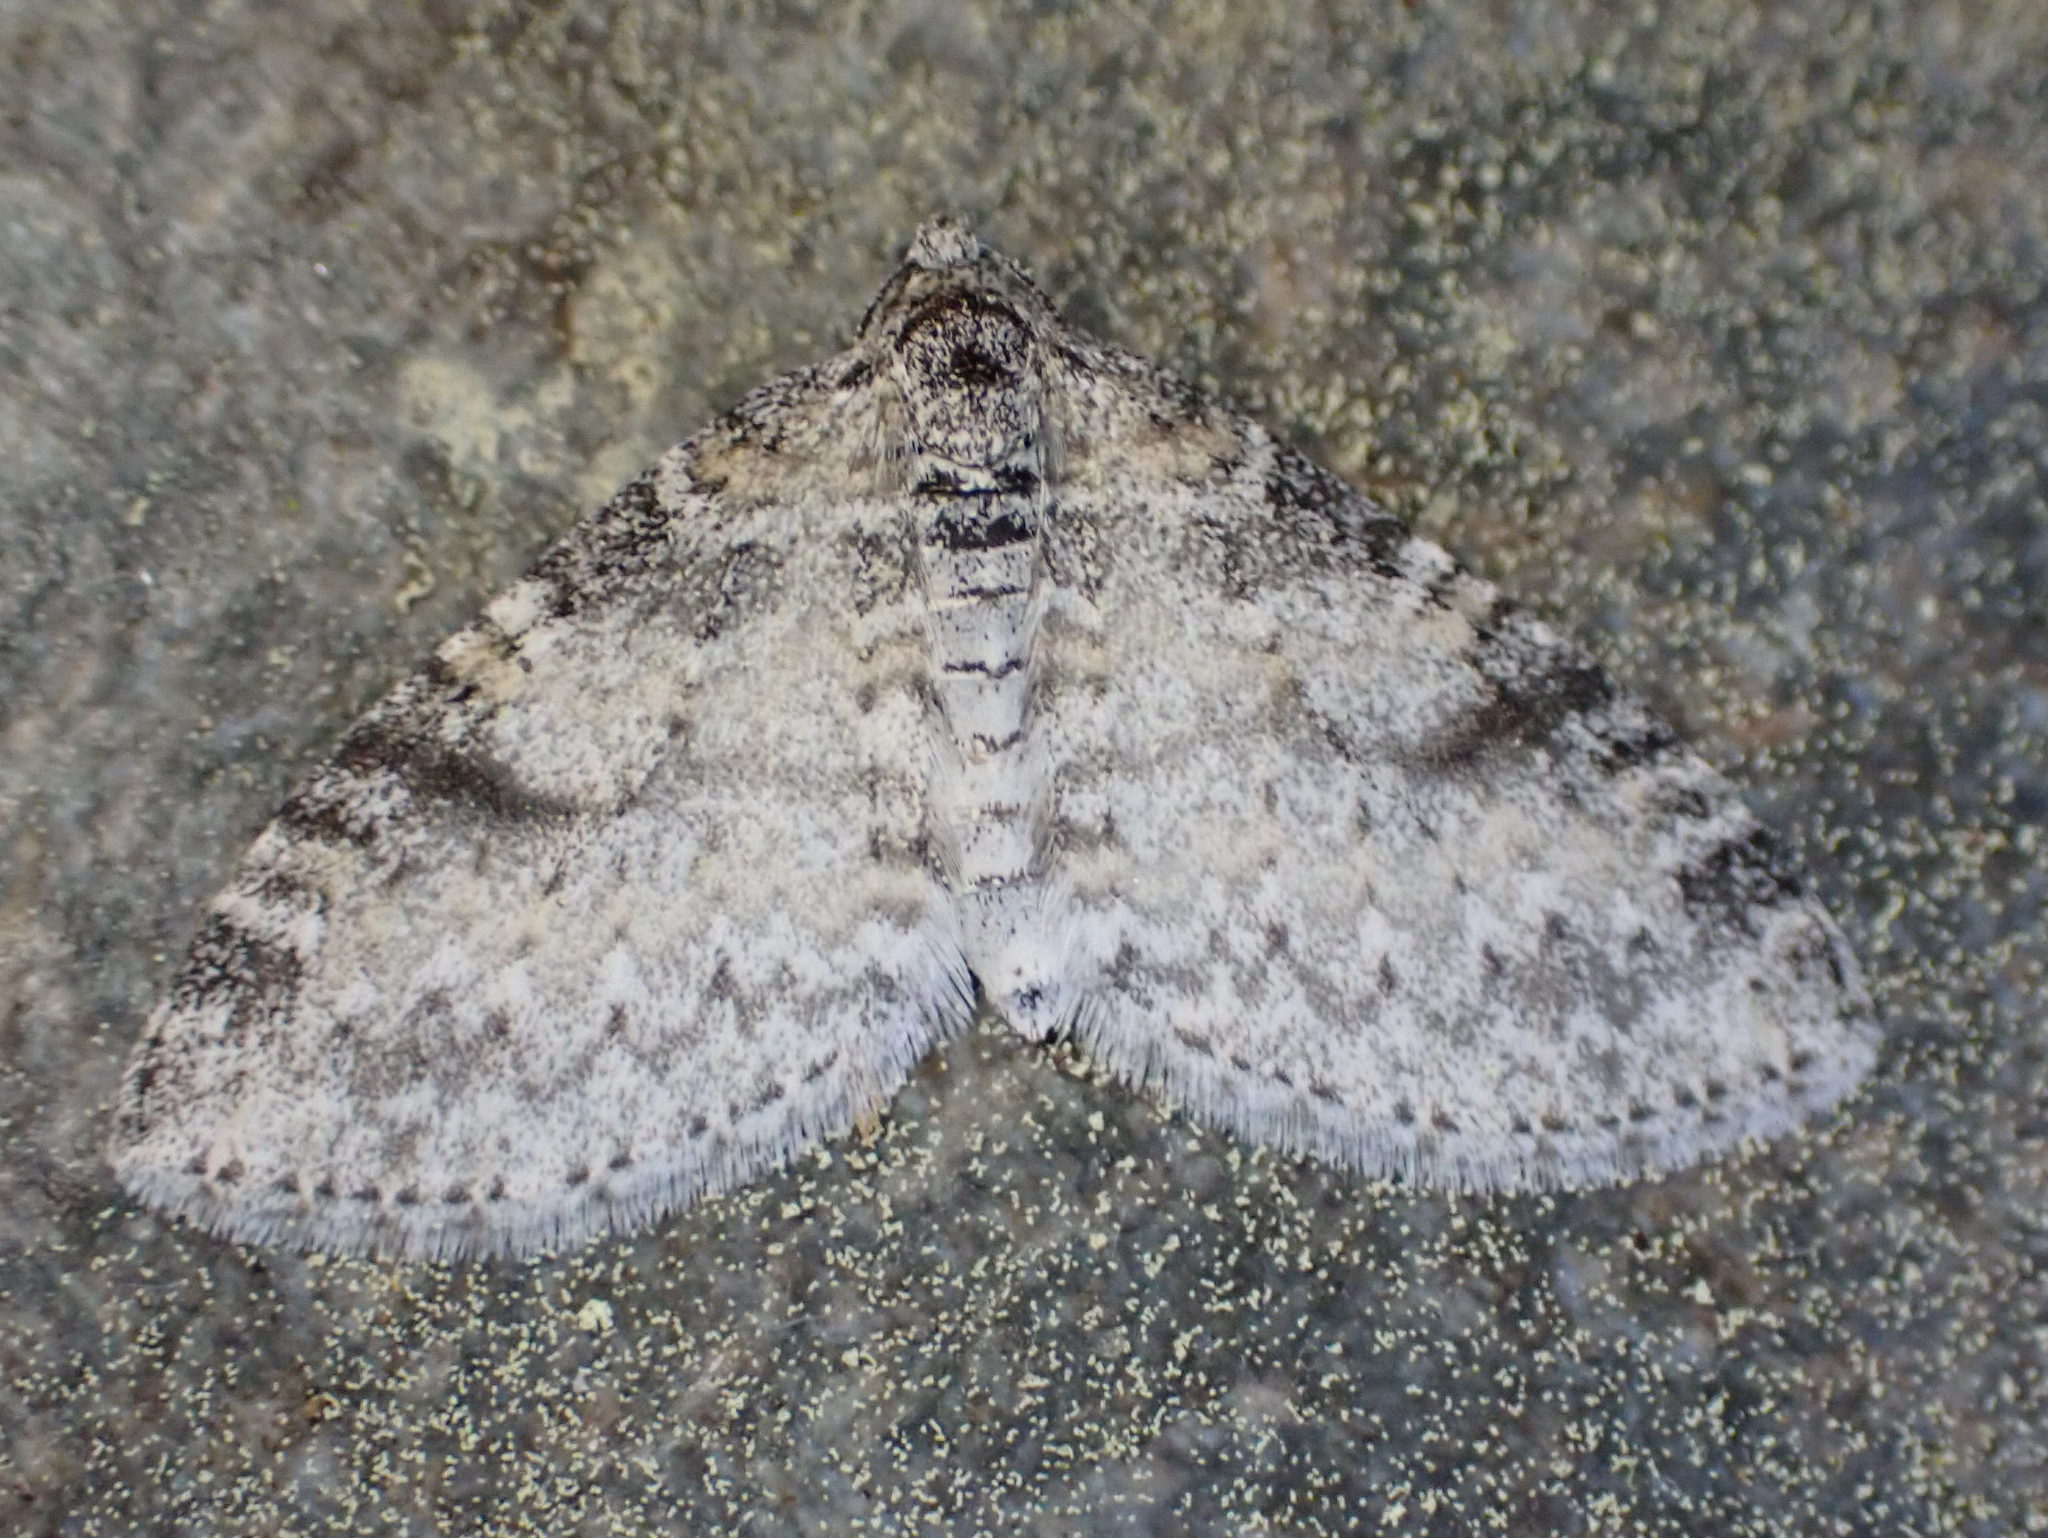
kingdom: Animalia
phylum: Arthropoda
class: Insecta
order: Lepidoptera
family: Geometridae
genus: Lobophora
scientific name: Lobophora nivigerata
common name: Powdered bigwing
